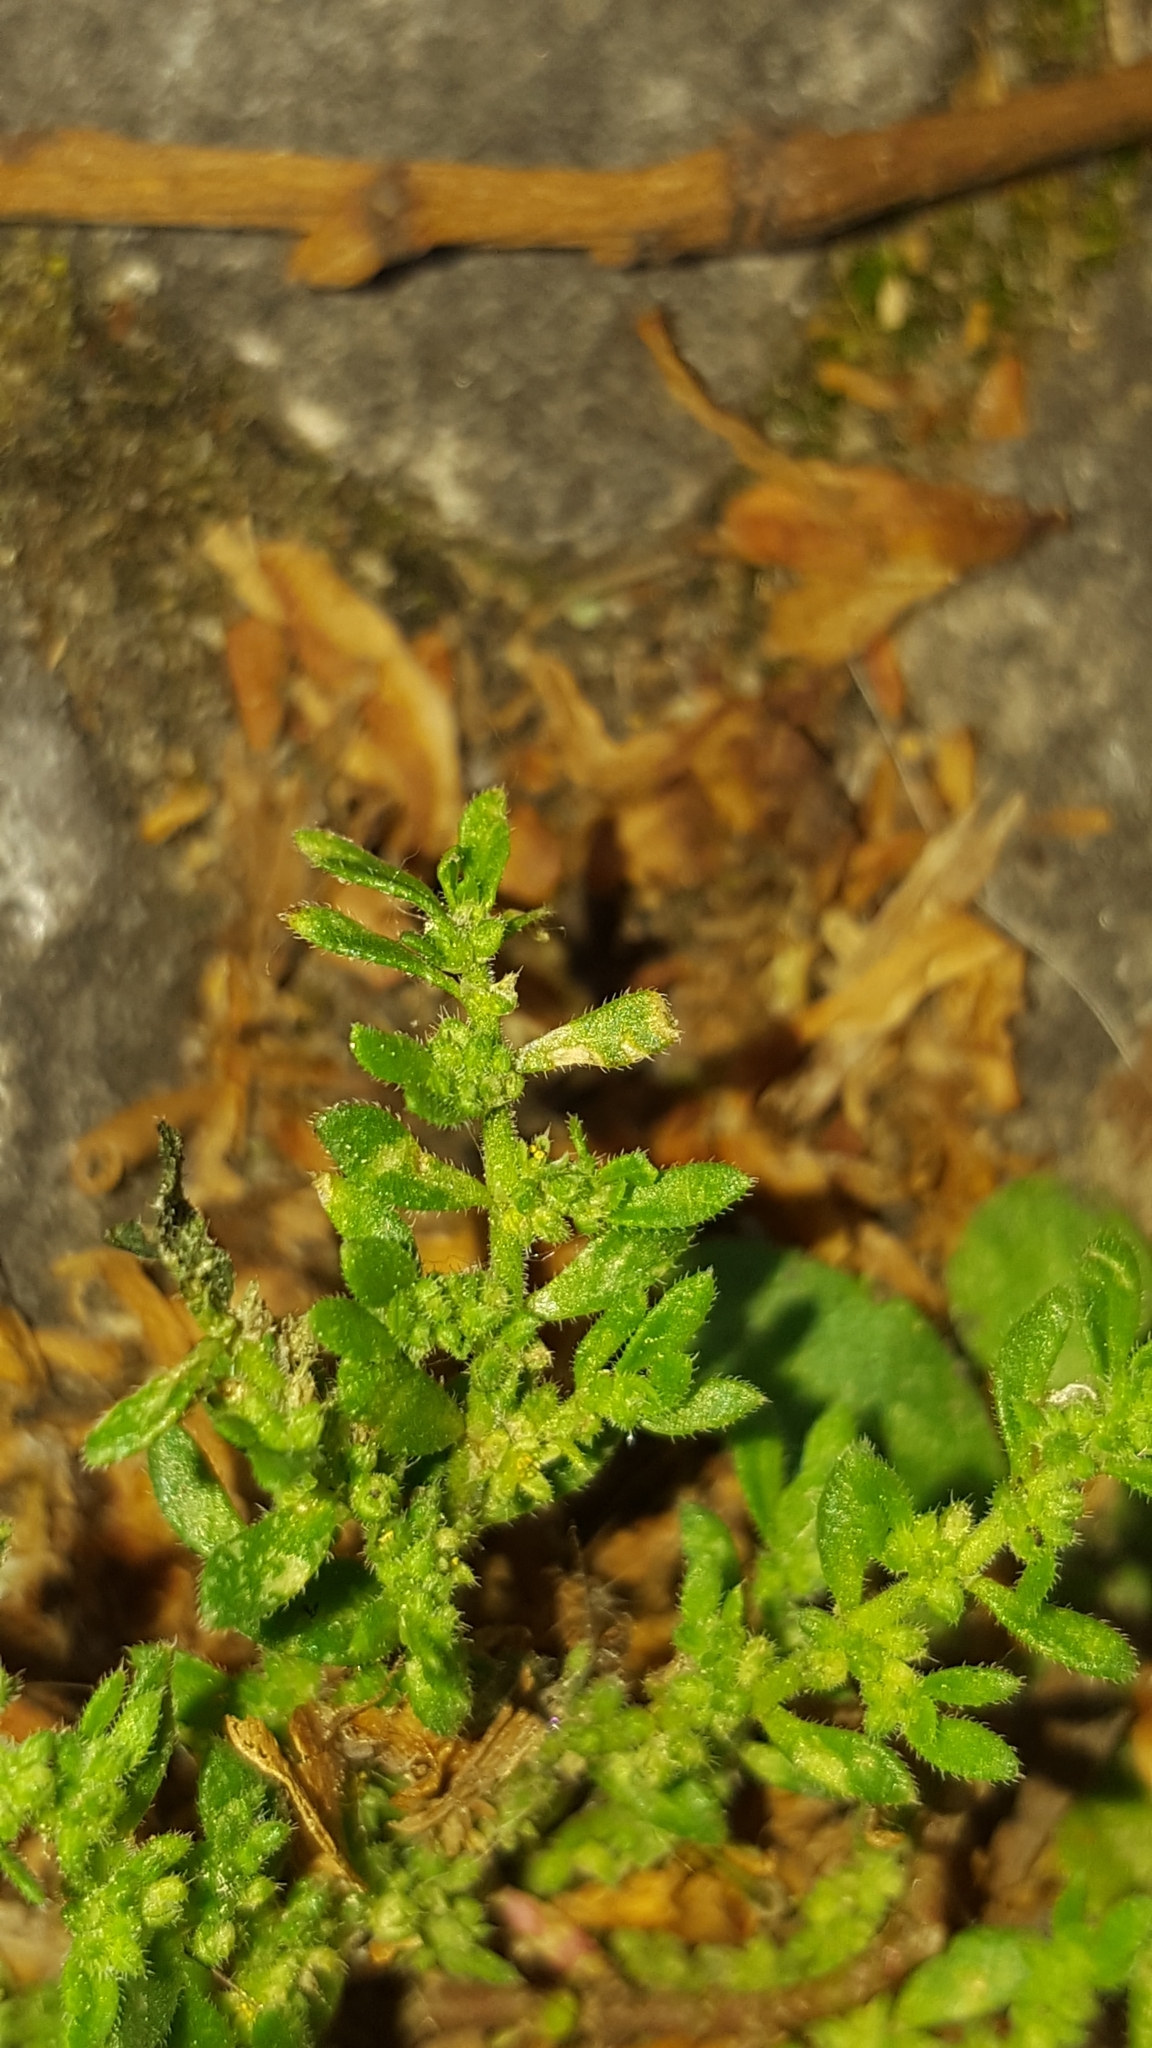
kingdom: Plantae
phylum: Tracheophyta
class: Magnoliopsida
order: Caryophyllales
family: Caryophyllaceae
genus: Herniaria
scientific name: Herniaria hirsuta
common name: Hairy rupturewort
